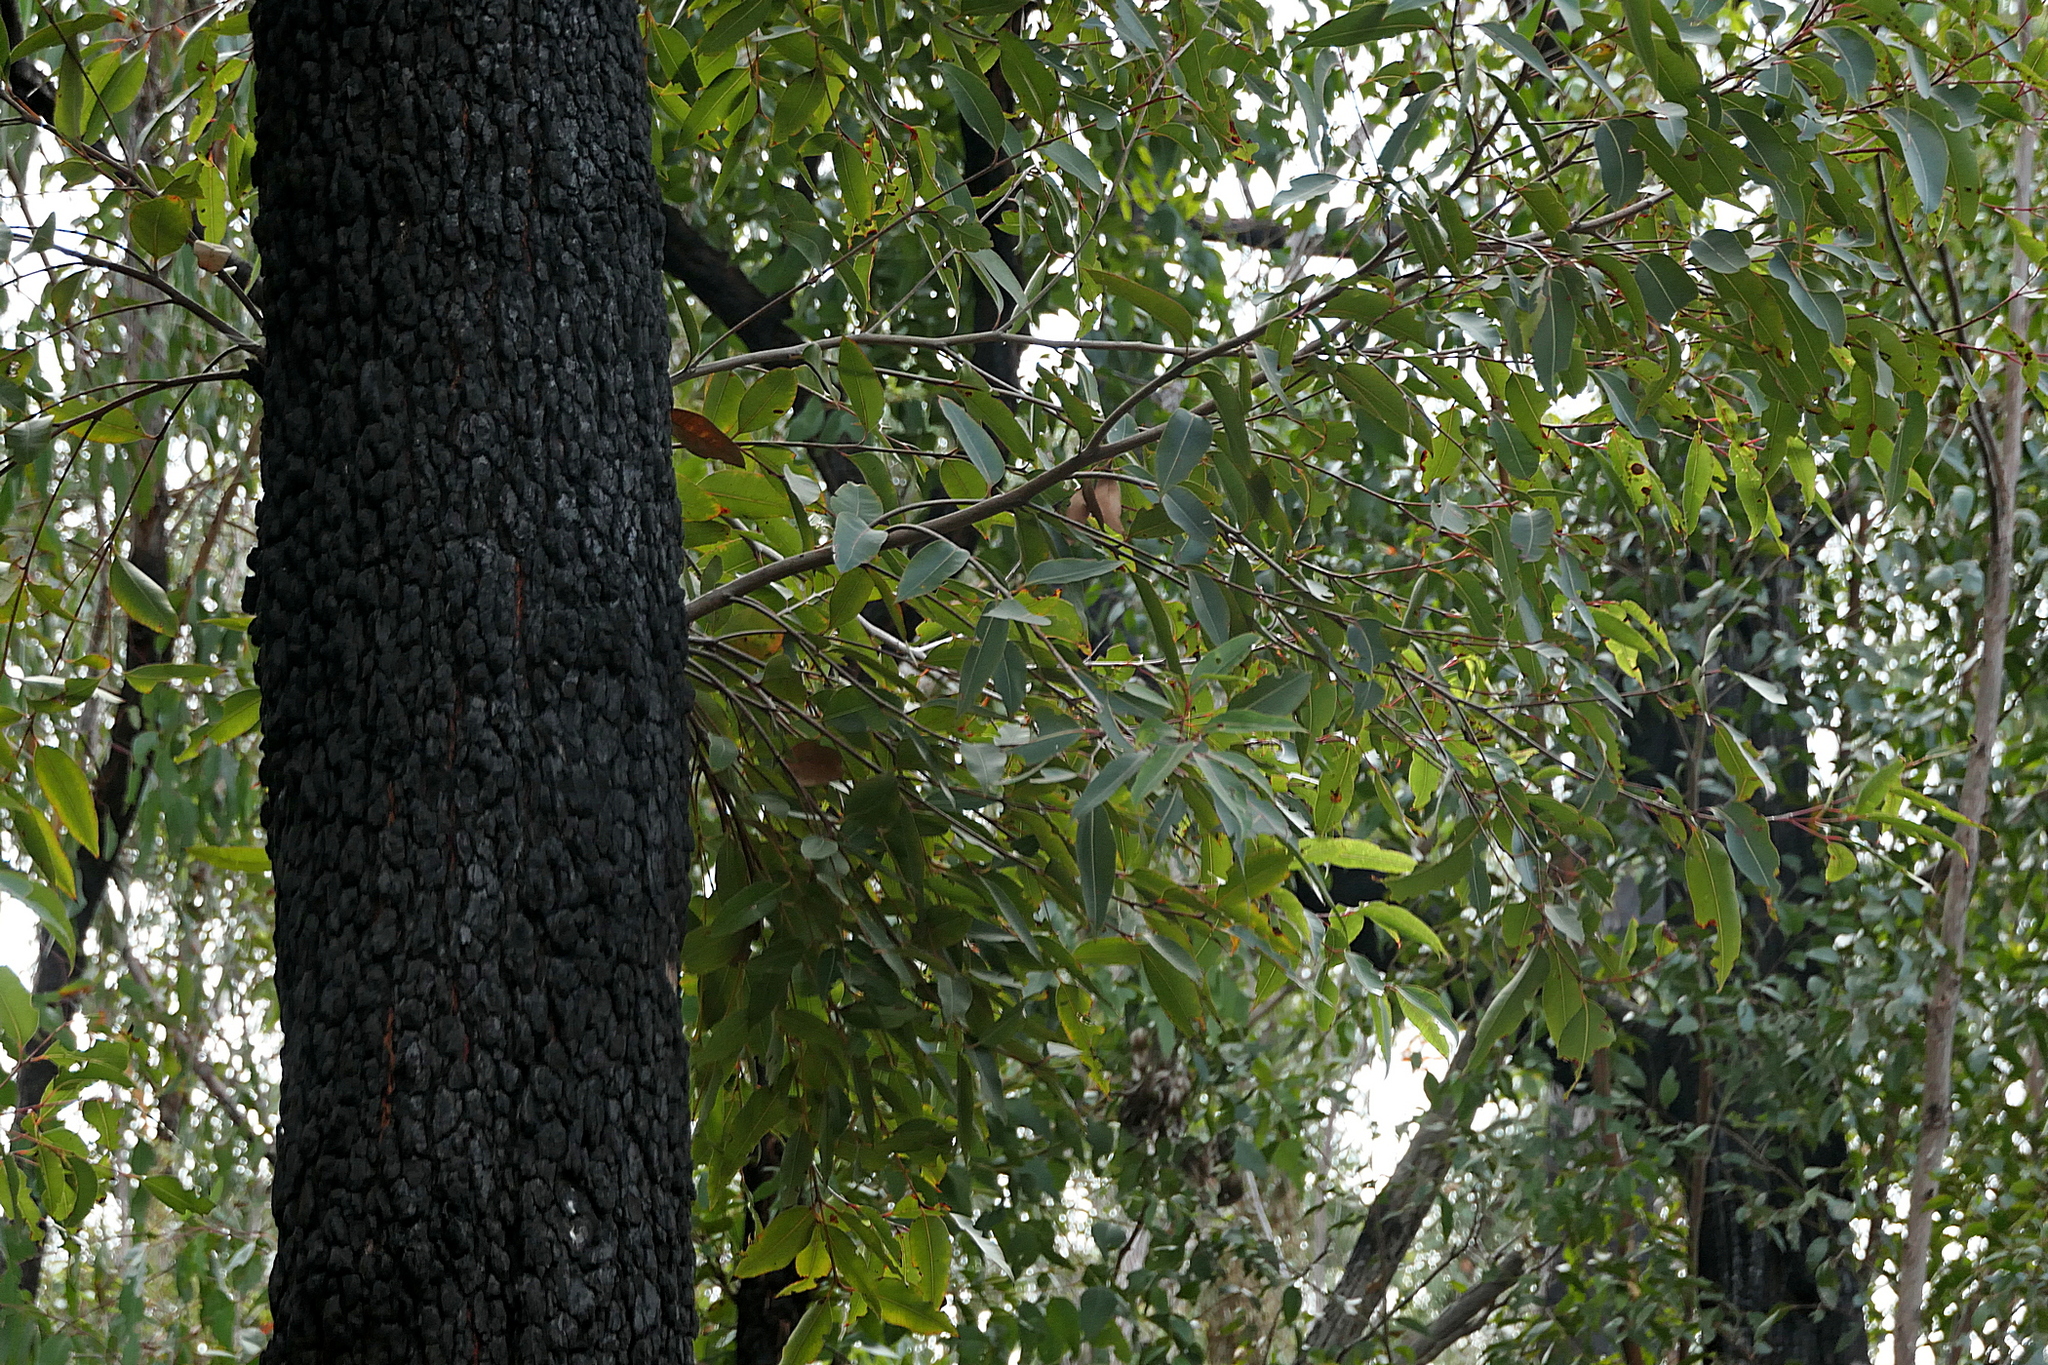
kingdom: Plantae
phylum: Tracheophyta
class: Magnoliopsida
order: Myrtales
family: Myrtaceae
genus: Corymbia
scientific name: Corymbia gummifera
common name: Red bloodwood
